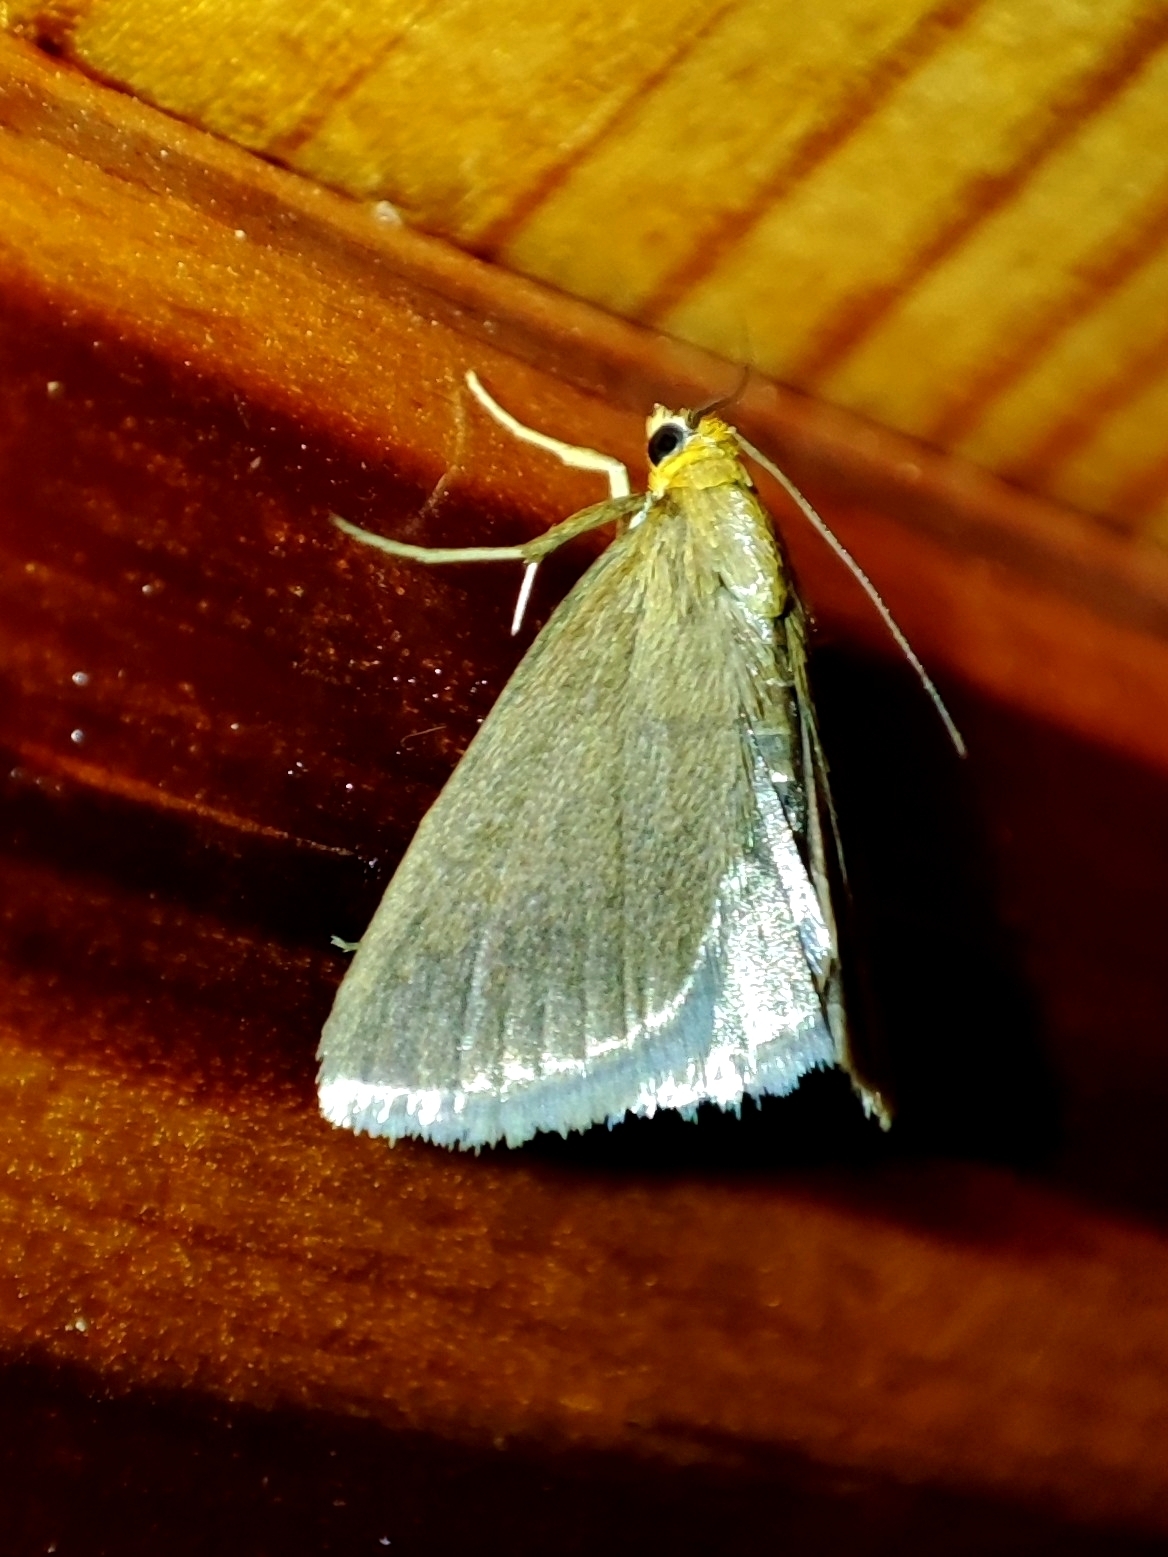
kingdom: Animalia
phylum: Arthropoda
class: Insecta
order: Lepidoptera
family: Crambidae
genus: Evergestis
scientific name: Evergestis aenealis
